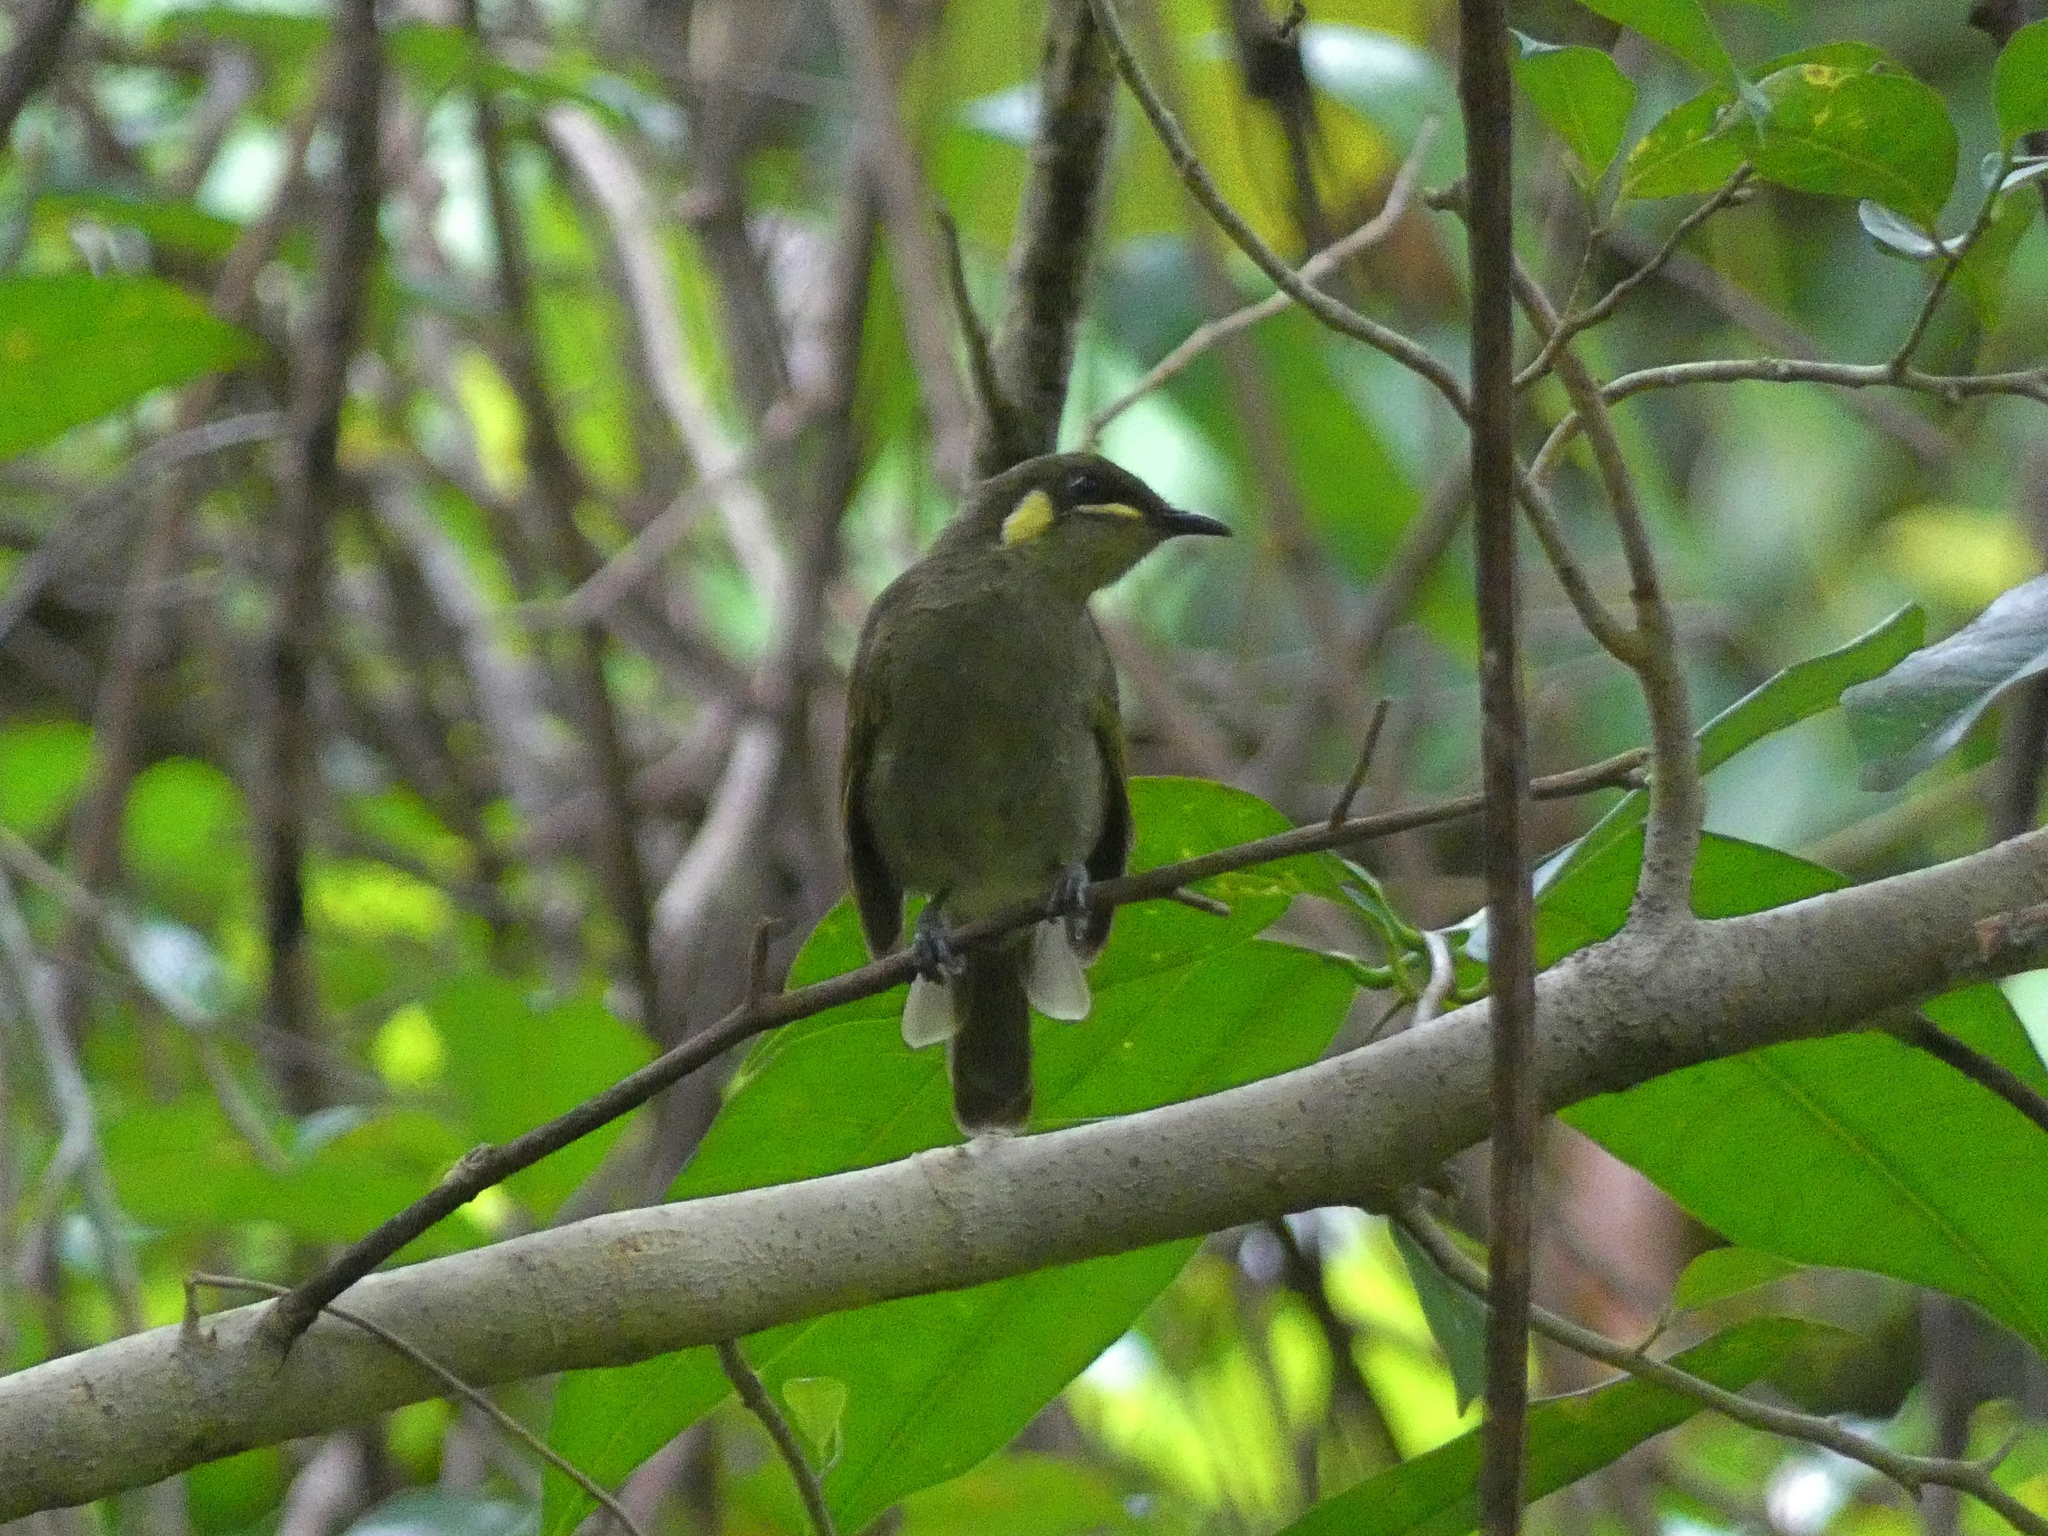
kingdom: Animalia
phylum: Chordata
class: Aves
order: Passeriformes
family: Meliphagidae
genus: Meliphaga
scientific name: Meliphaga notata
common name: Yellow-spotted honeyeater
